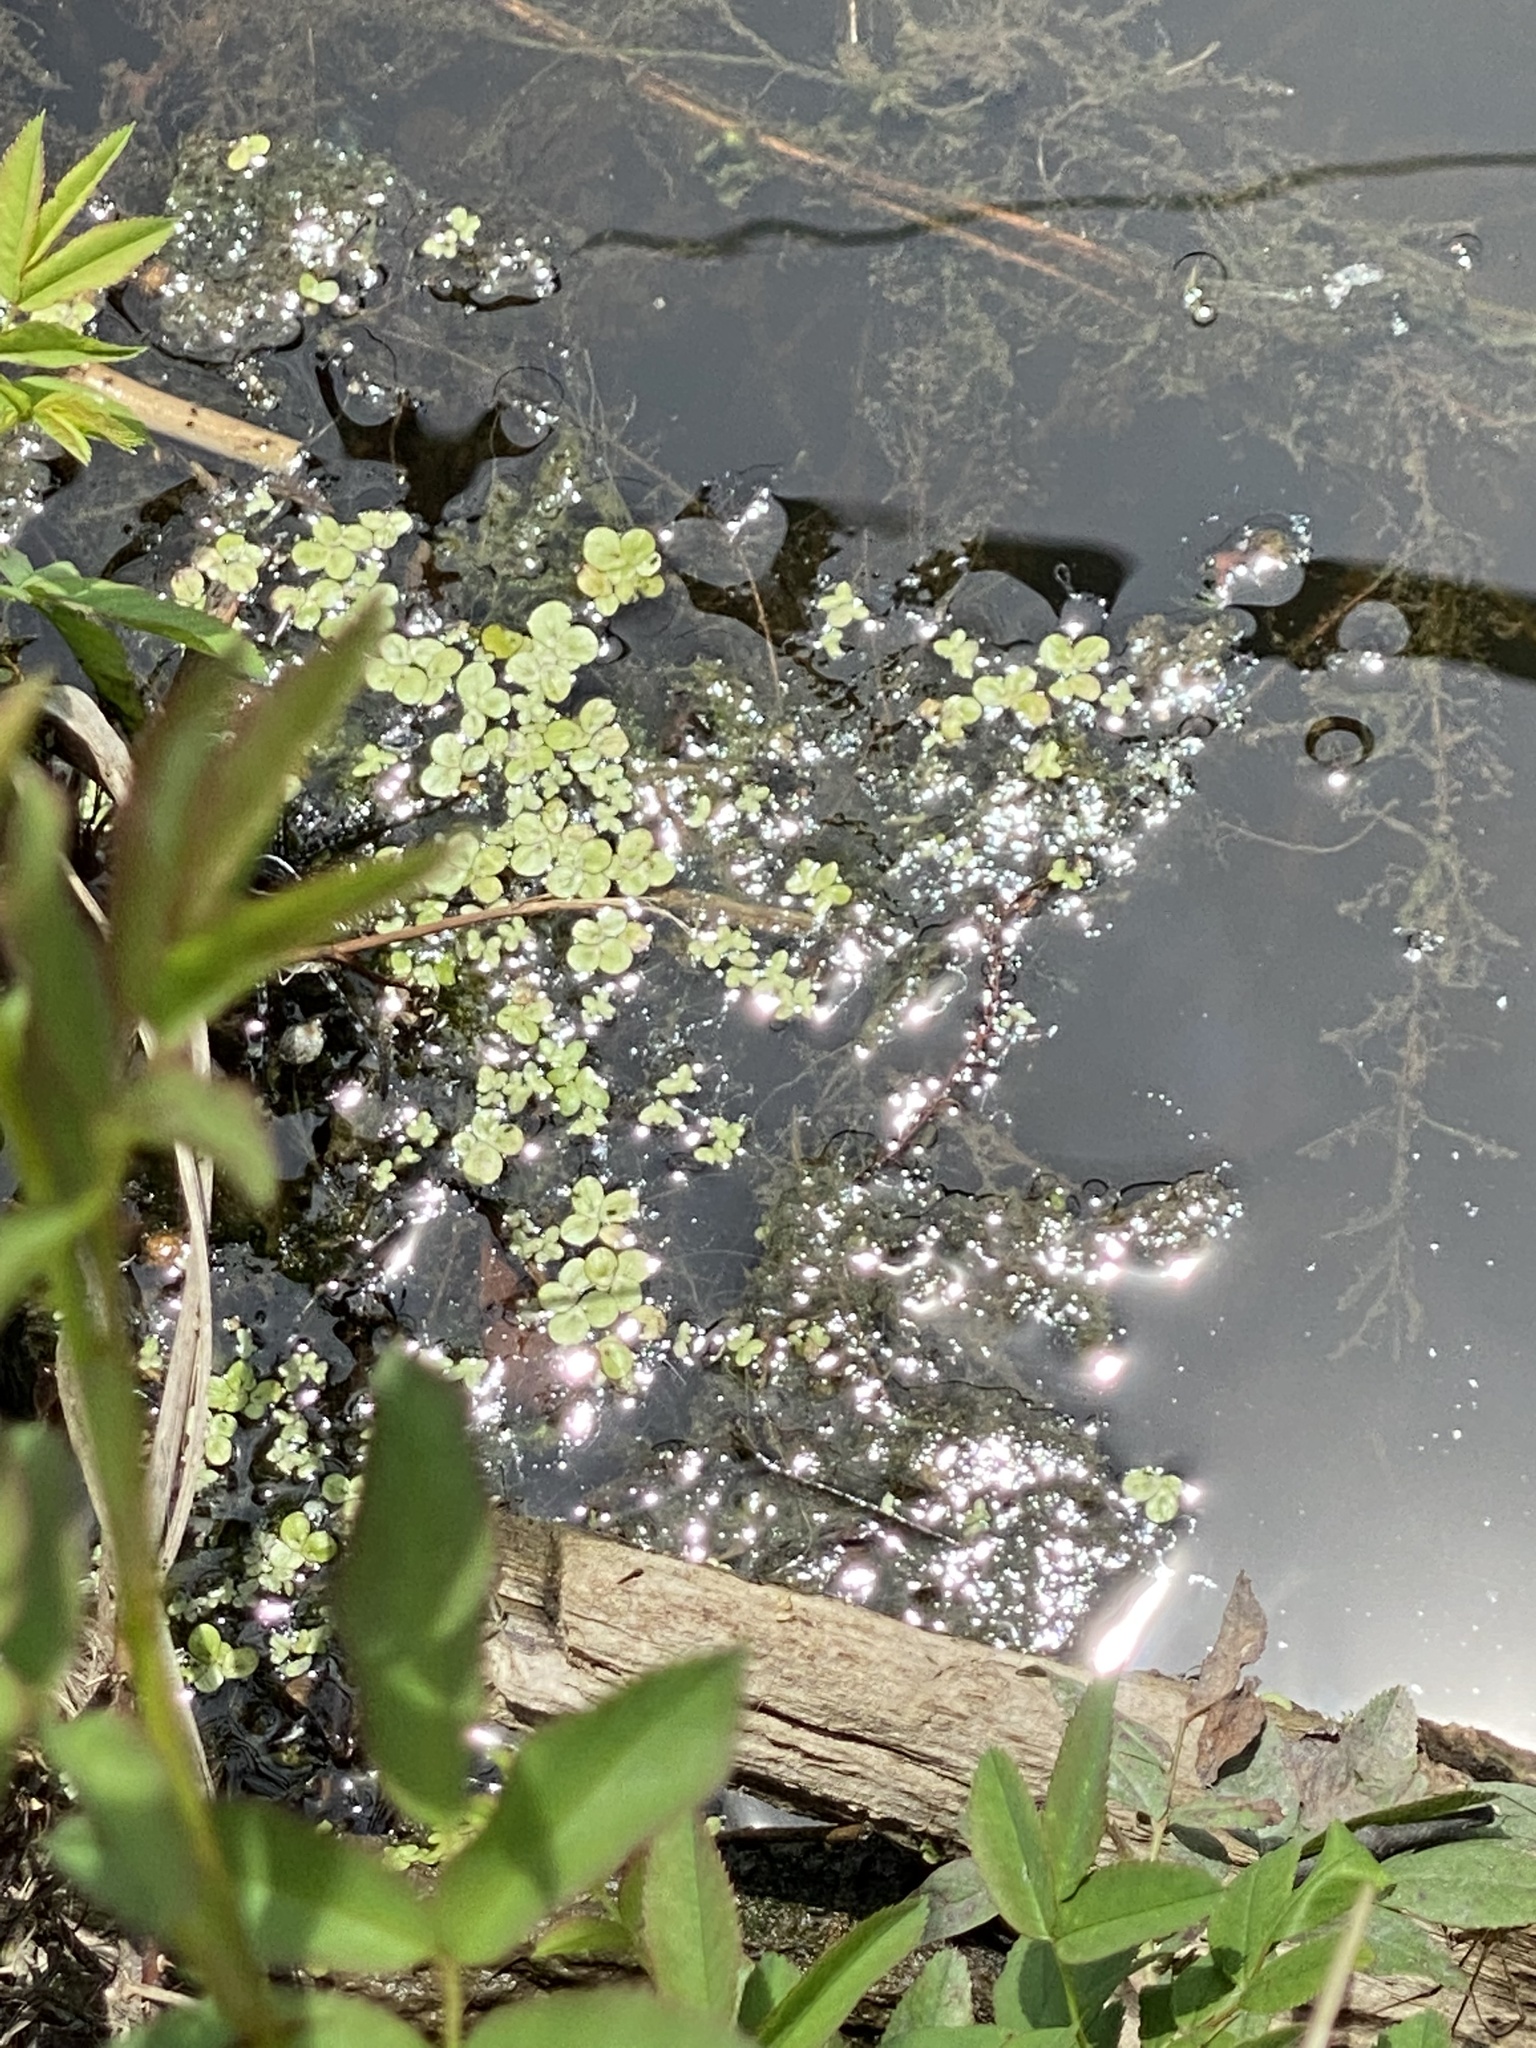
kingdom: Plantae
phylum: Tracheophyta
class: Liliopsida
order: Alismatales
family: Araceae
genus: Spirodela
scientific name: Spirodela polyrhiza
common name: Great duckweed
